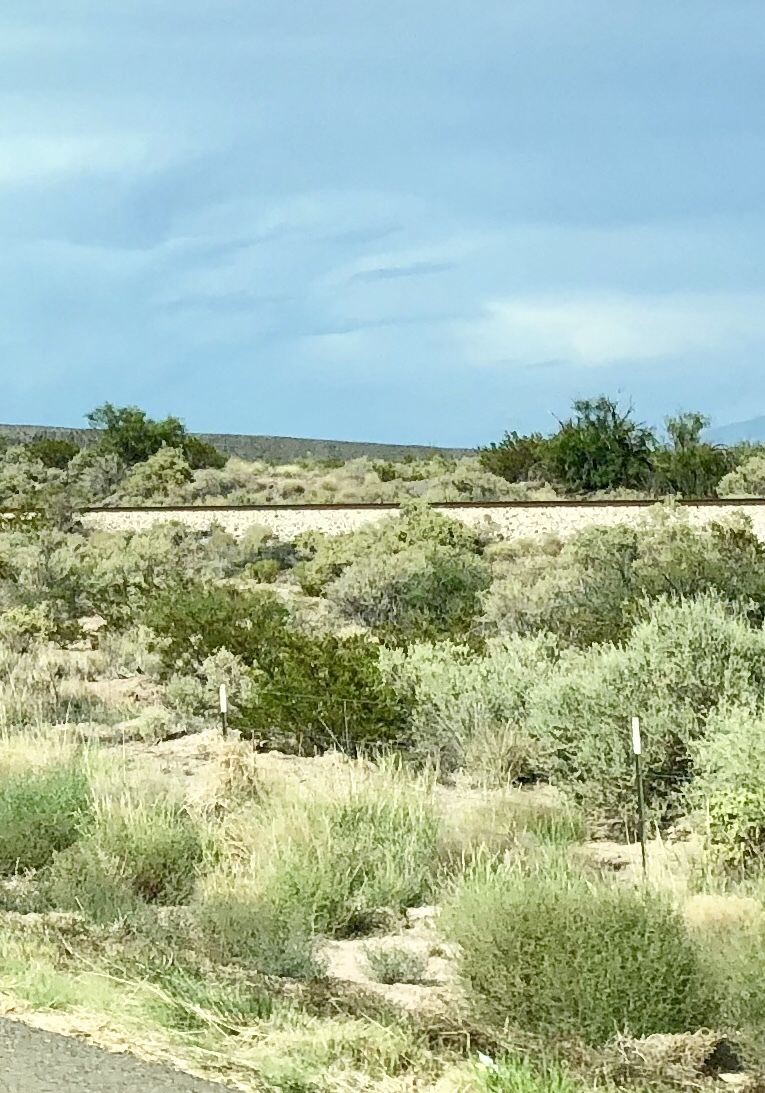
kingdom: Plantae
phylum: Tracheophyta
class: Magnoliopsida
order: Zygophyllales
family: Zygophyllaceae
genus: Larrea
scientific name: Larrea tridentata
